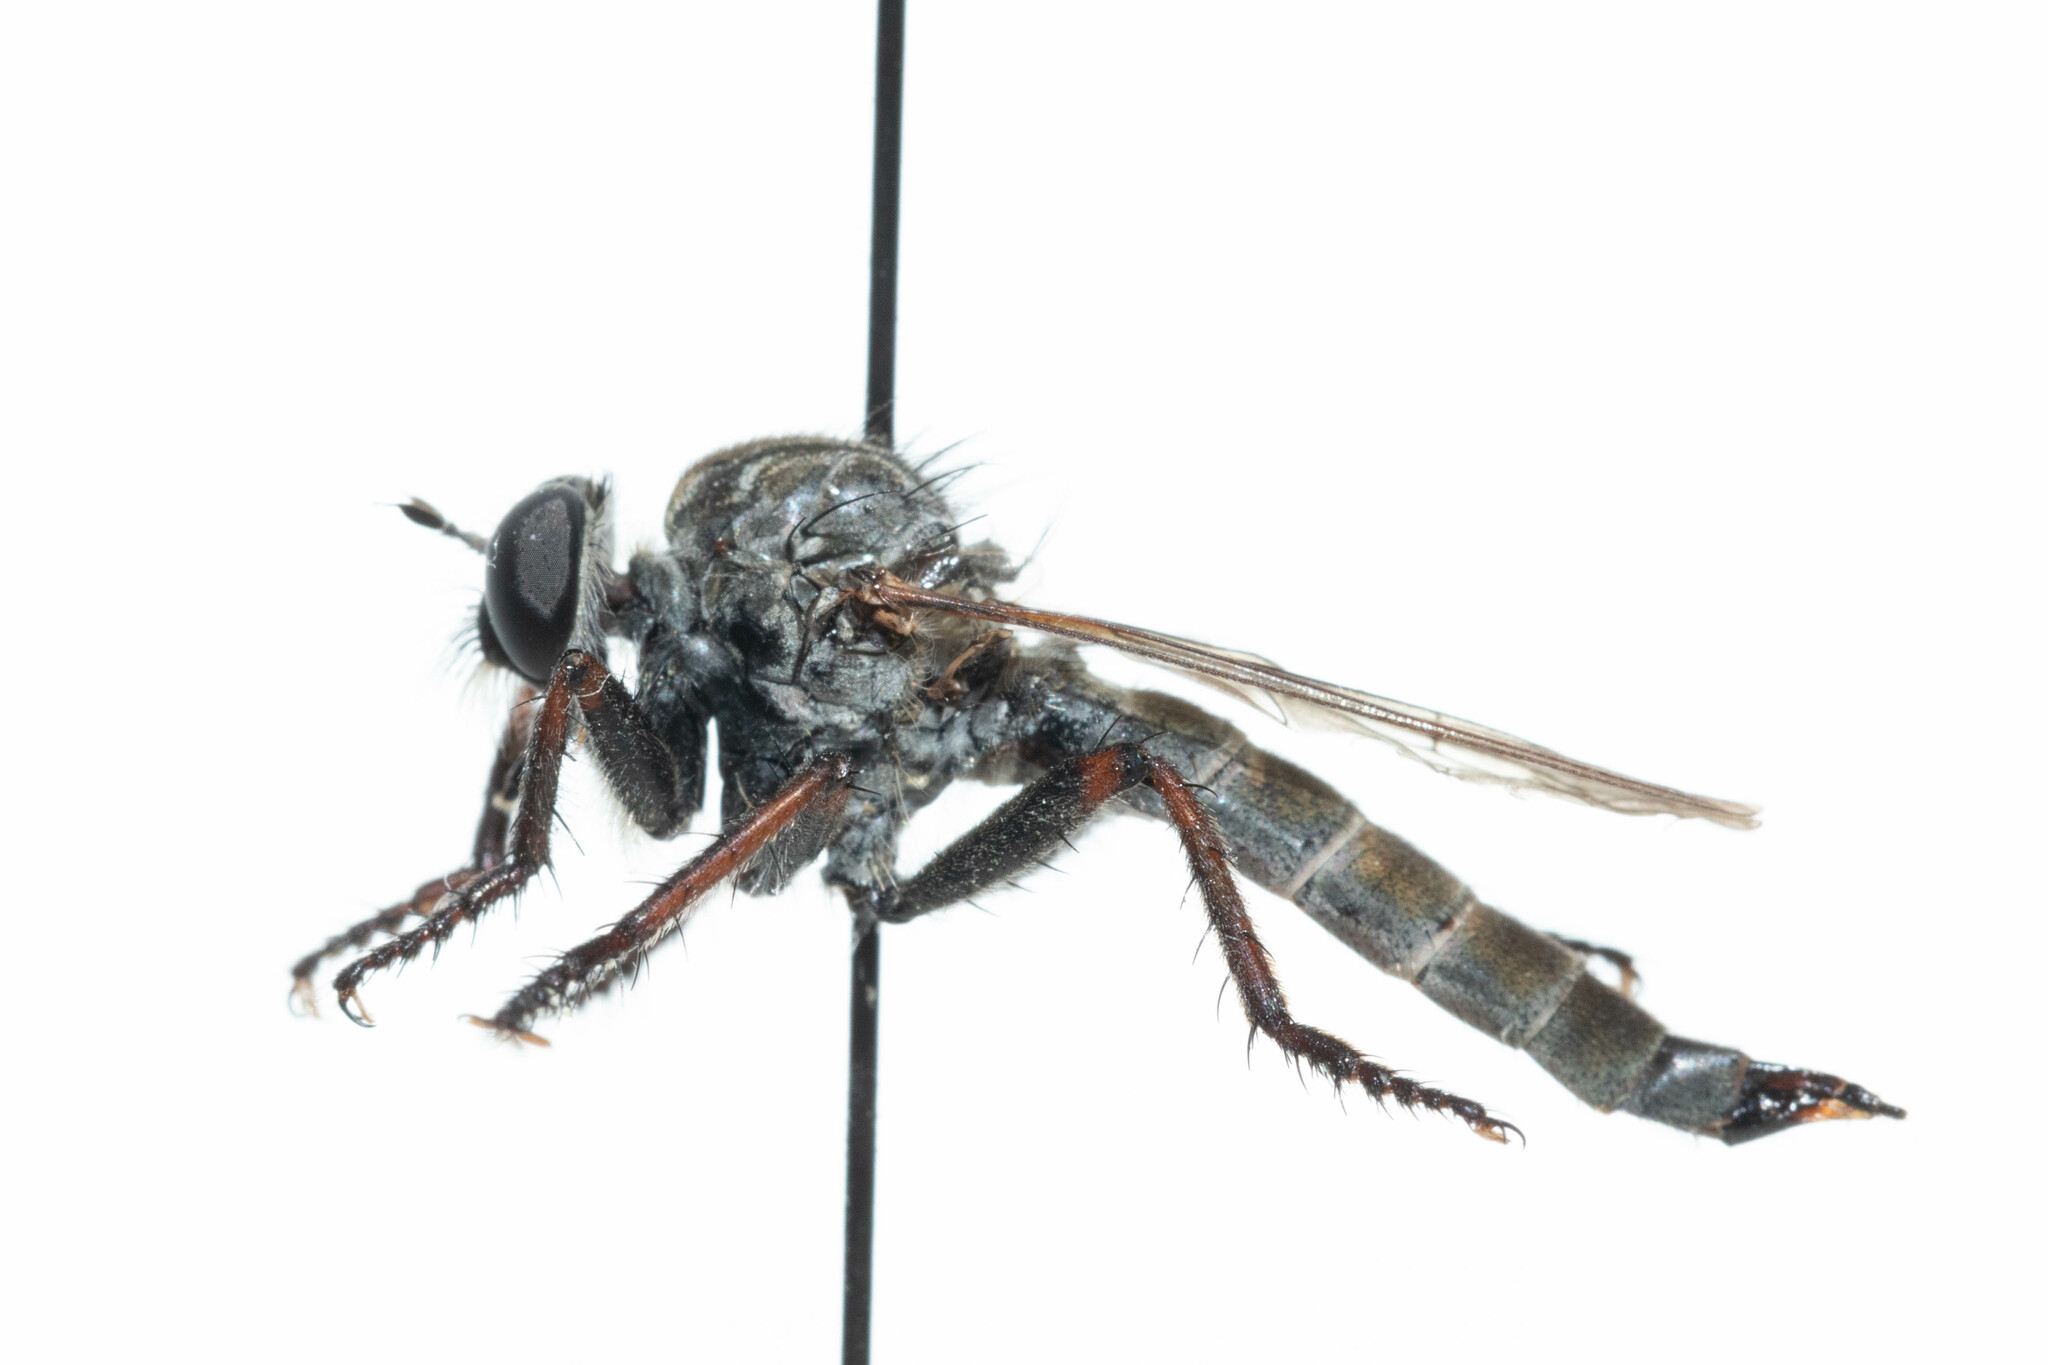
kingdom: Animalia
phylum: Arthropoda
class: Insecta
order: Diptera
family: Asilidae
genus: Machimus
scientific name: Machimus callidus
